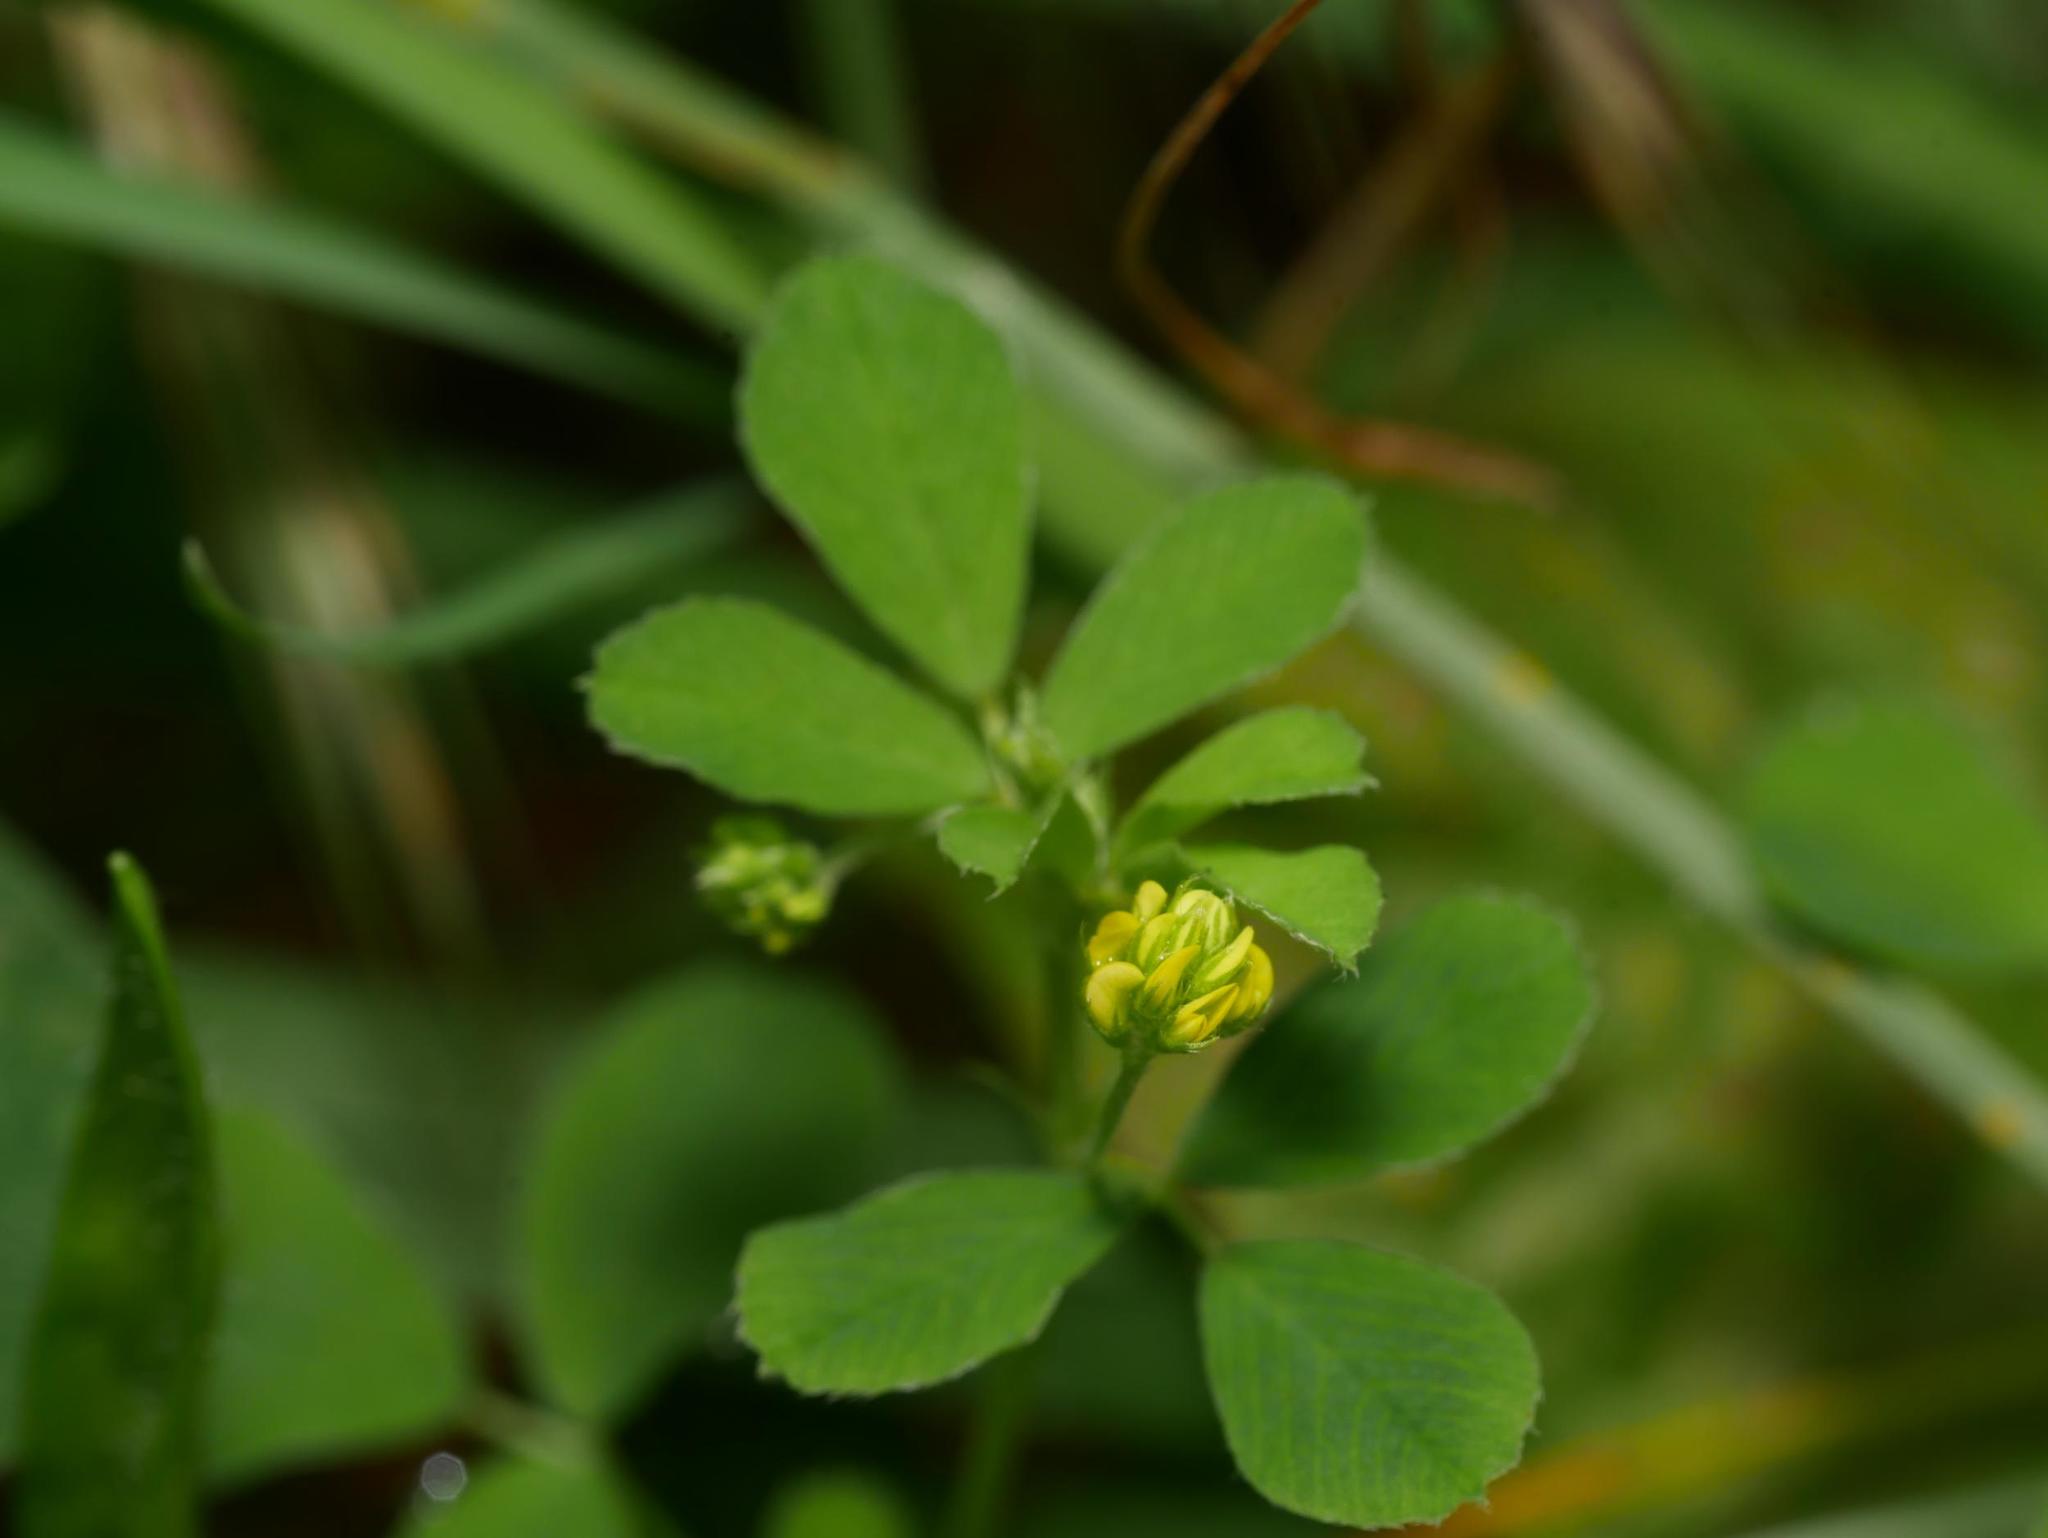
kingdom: Plantae
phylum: Tracheophyta
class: Magnoliopsida
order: Fabales
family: Fabaceae
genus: Medicago
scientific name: Medicago lupulina
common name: Black medick
